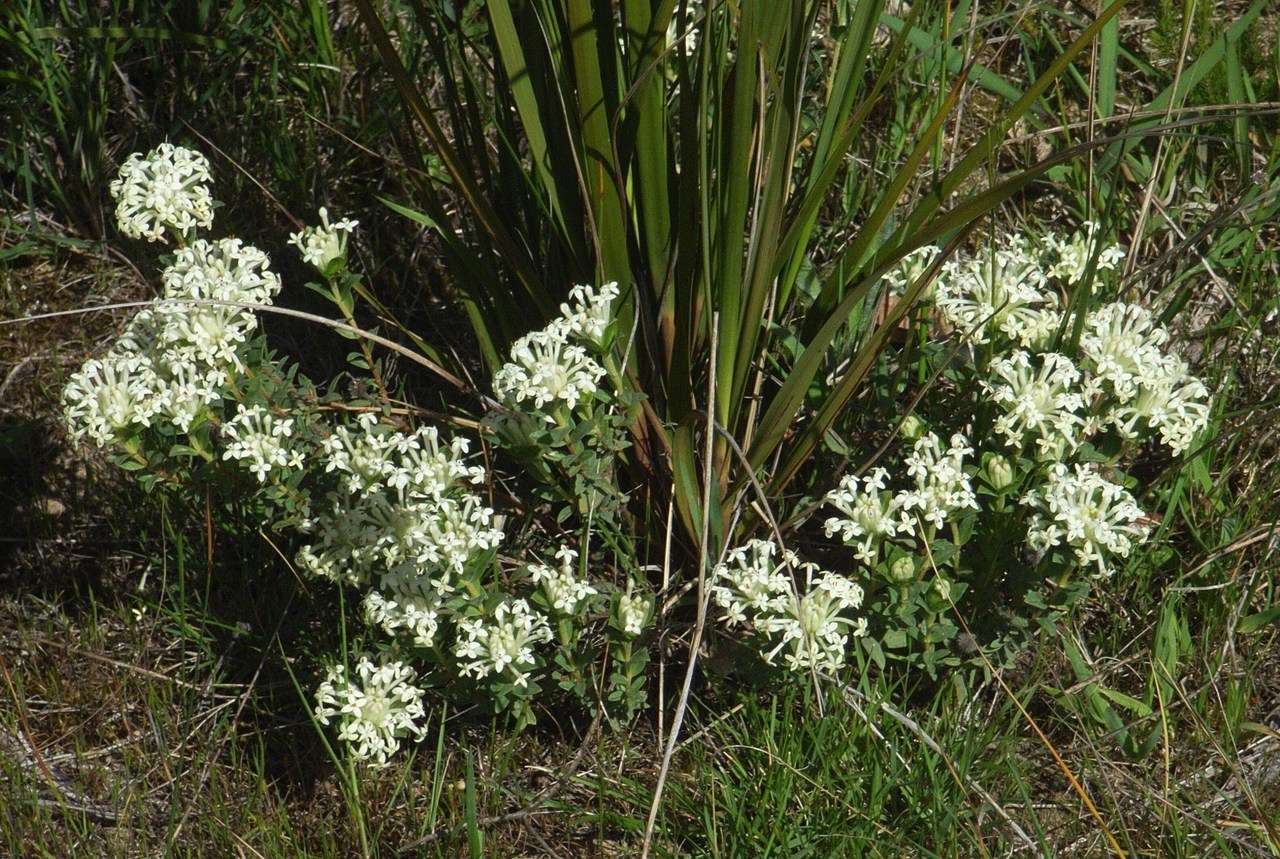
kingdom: Plantae
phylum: Tracheophyta
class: Magnoliopsida
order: Malvales
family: Thymelaeaceae
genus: Pimelea
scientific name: Pimelea humilis
